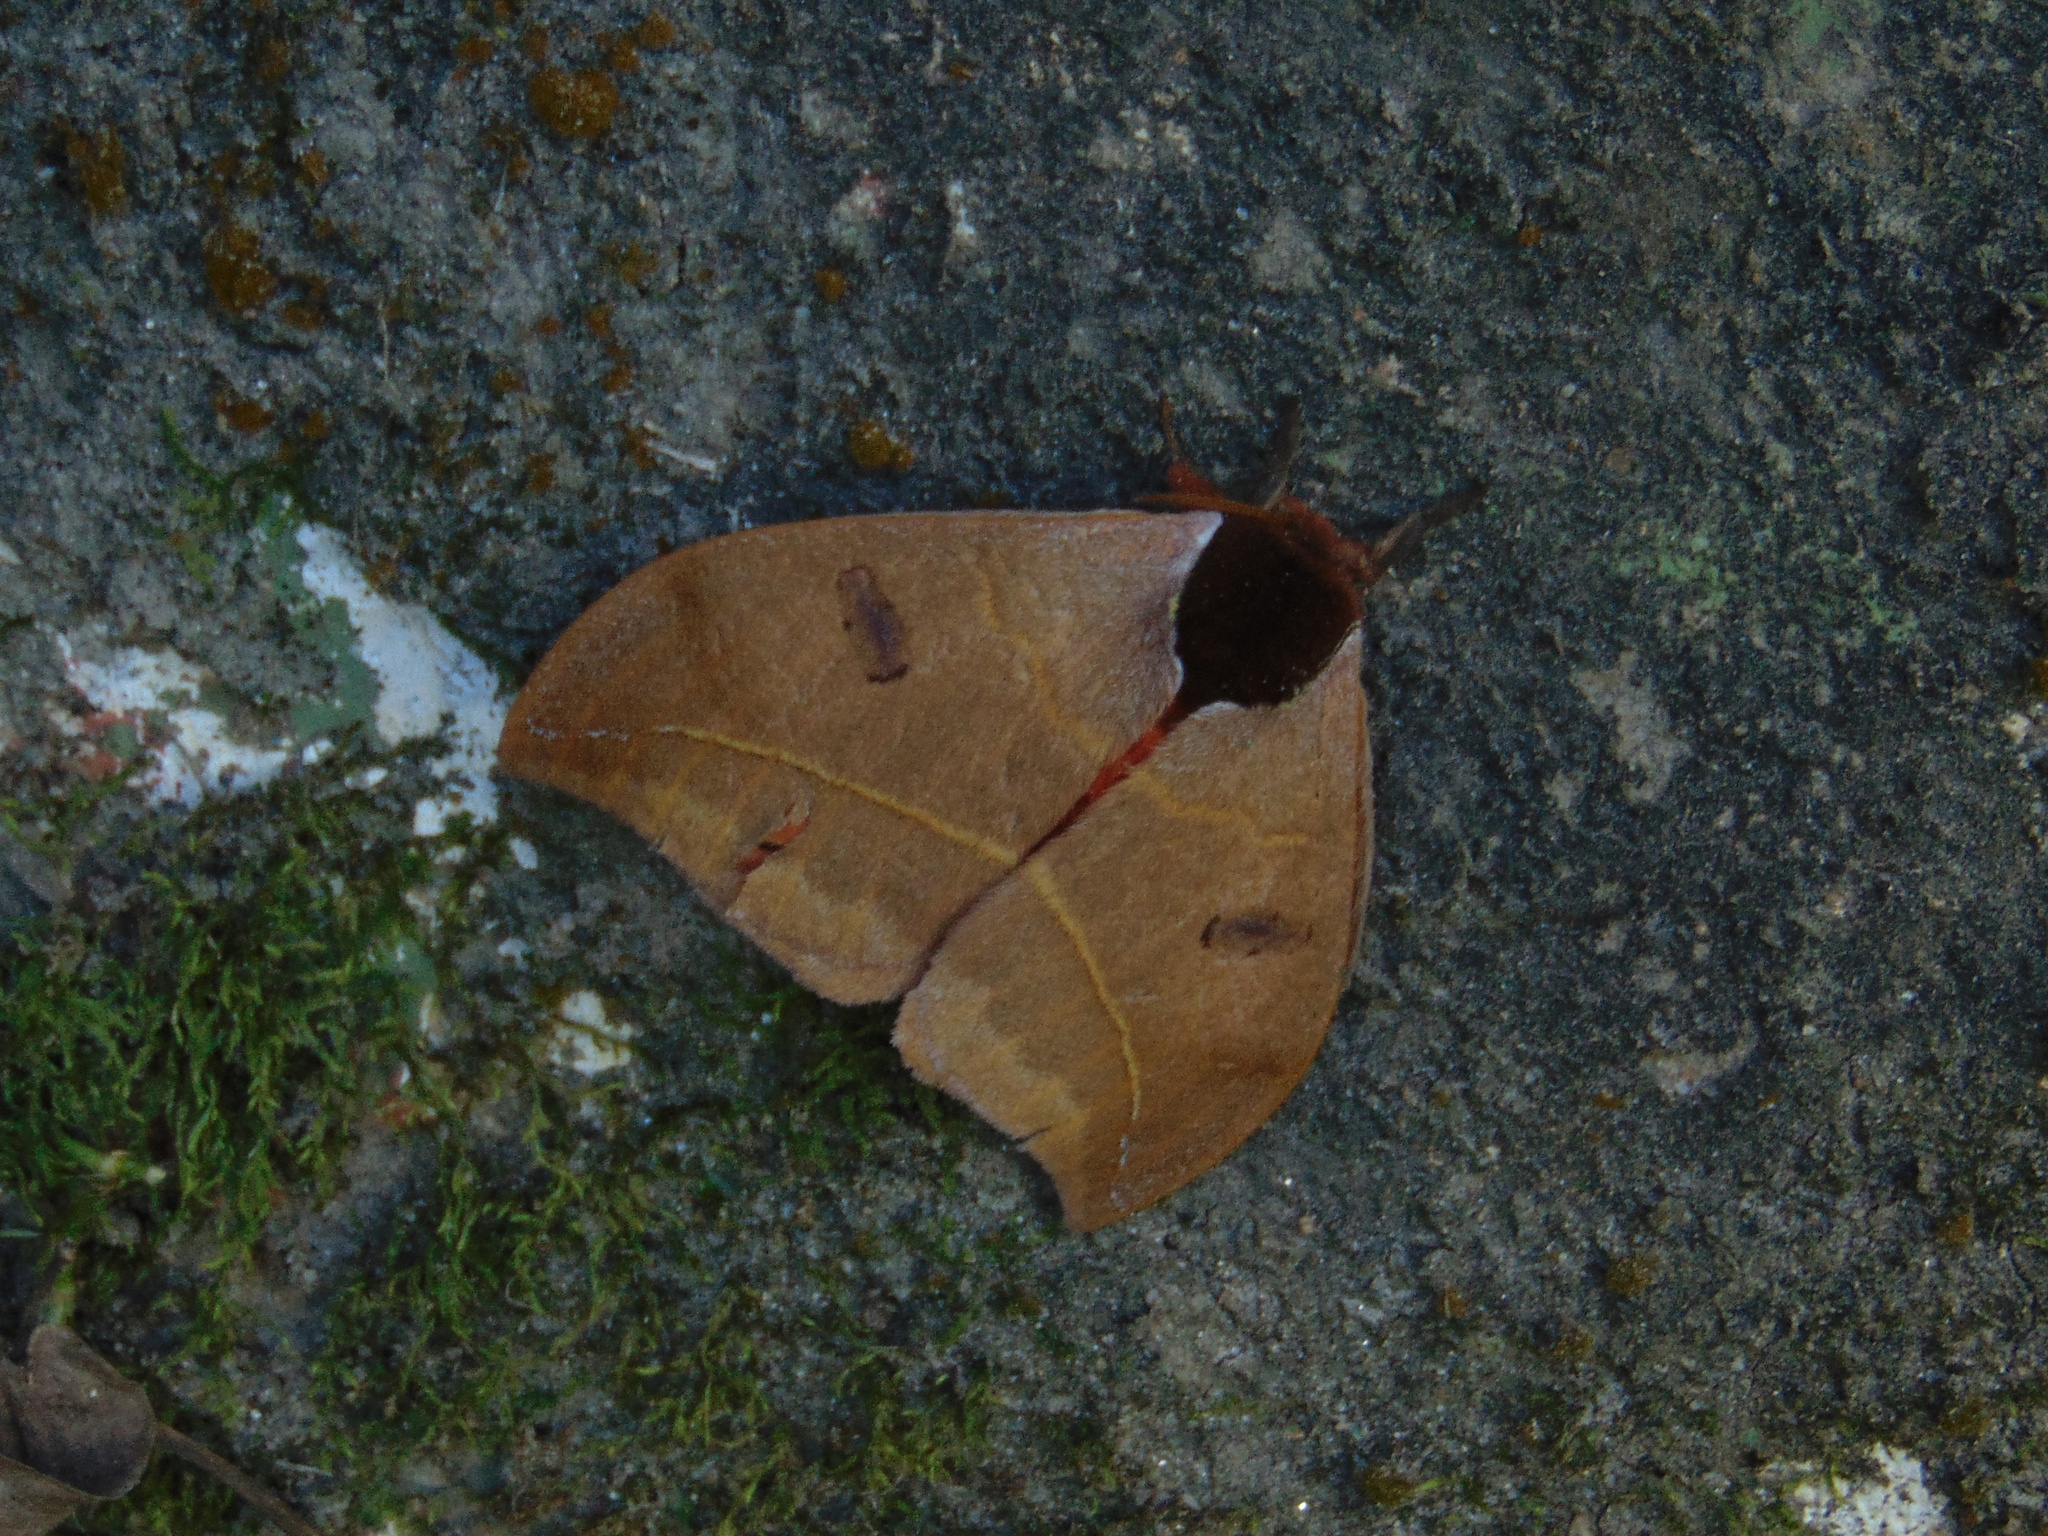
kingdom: Animalia
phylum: Arthropoda
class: Insecta
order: Lepidoptera
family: Saturniidae
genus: Automeris
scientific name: Automeris illustris
